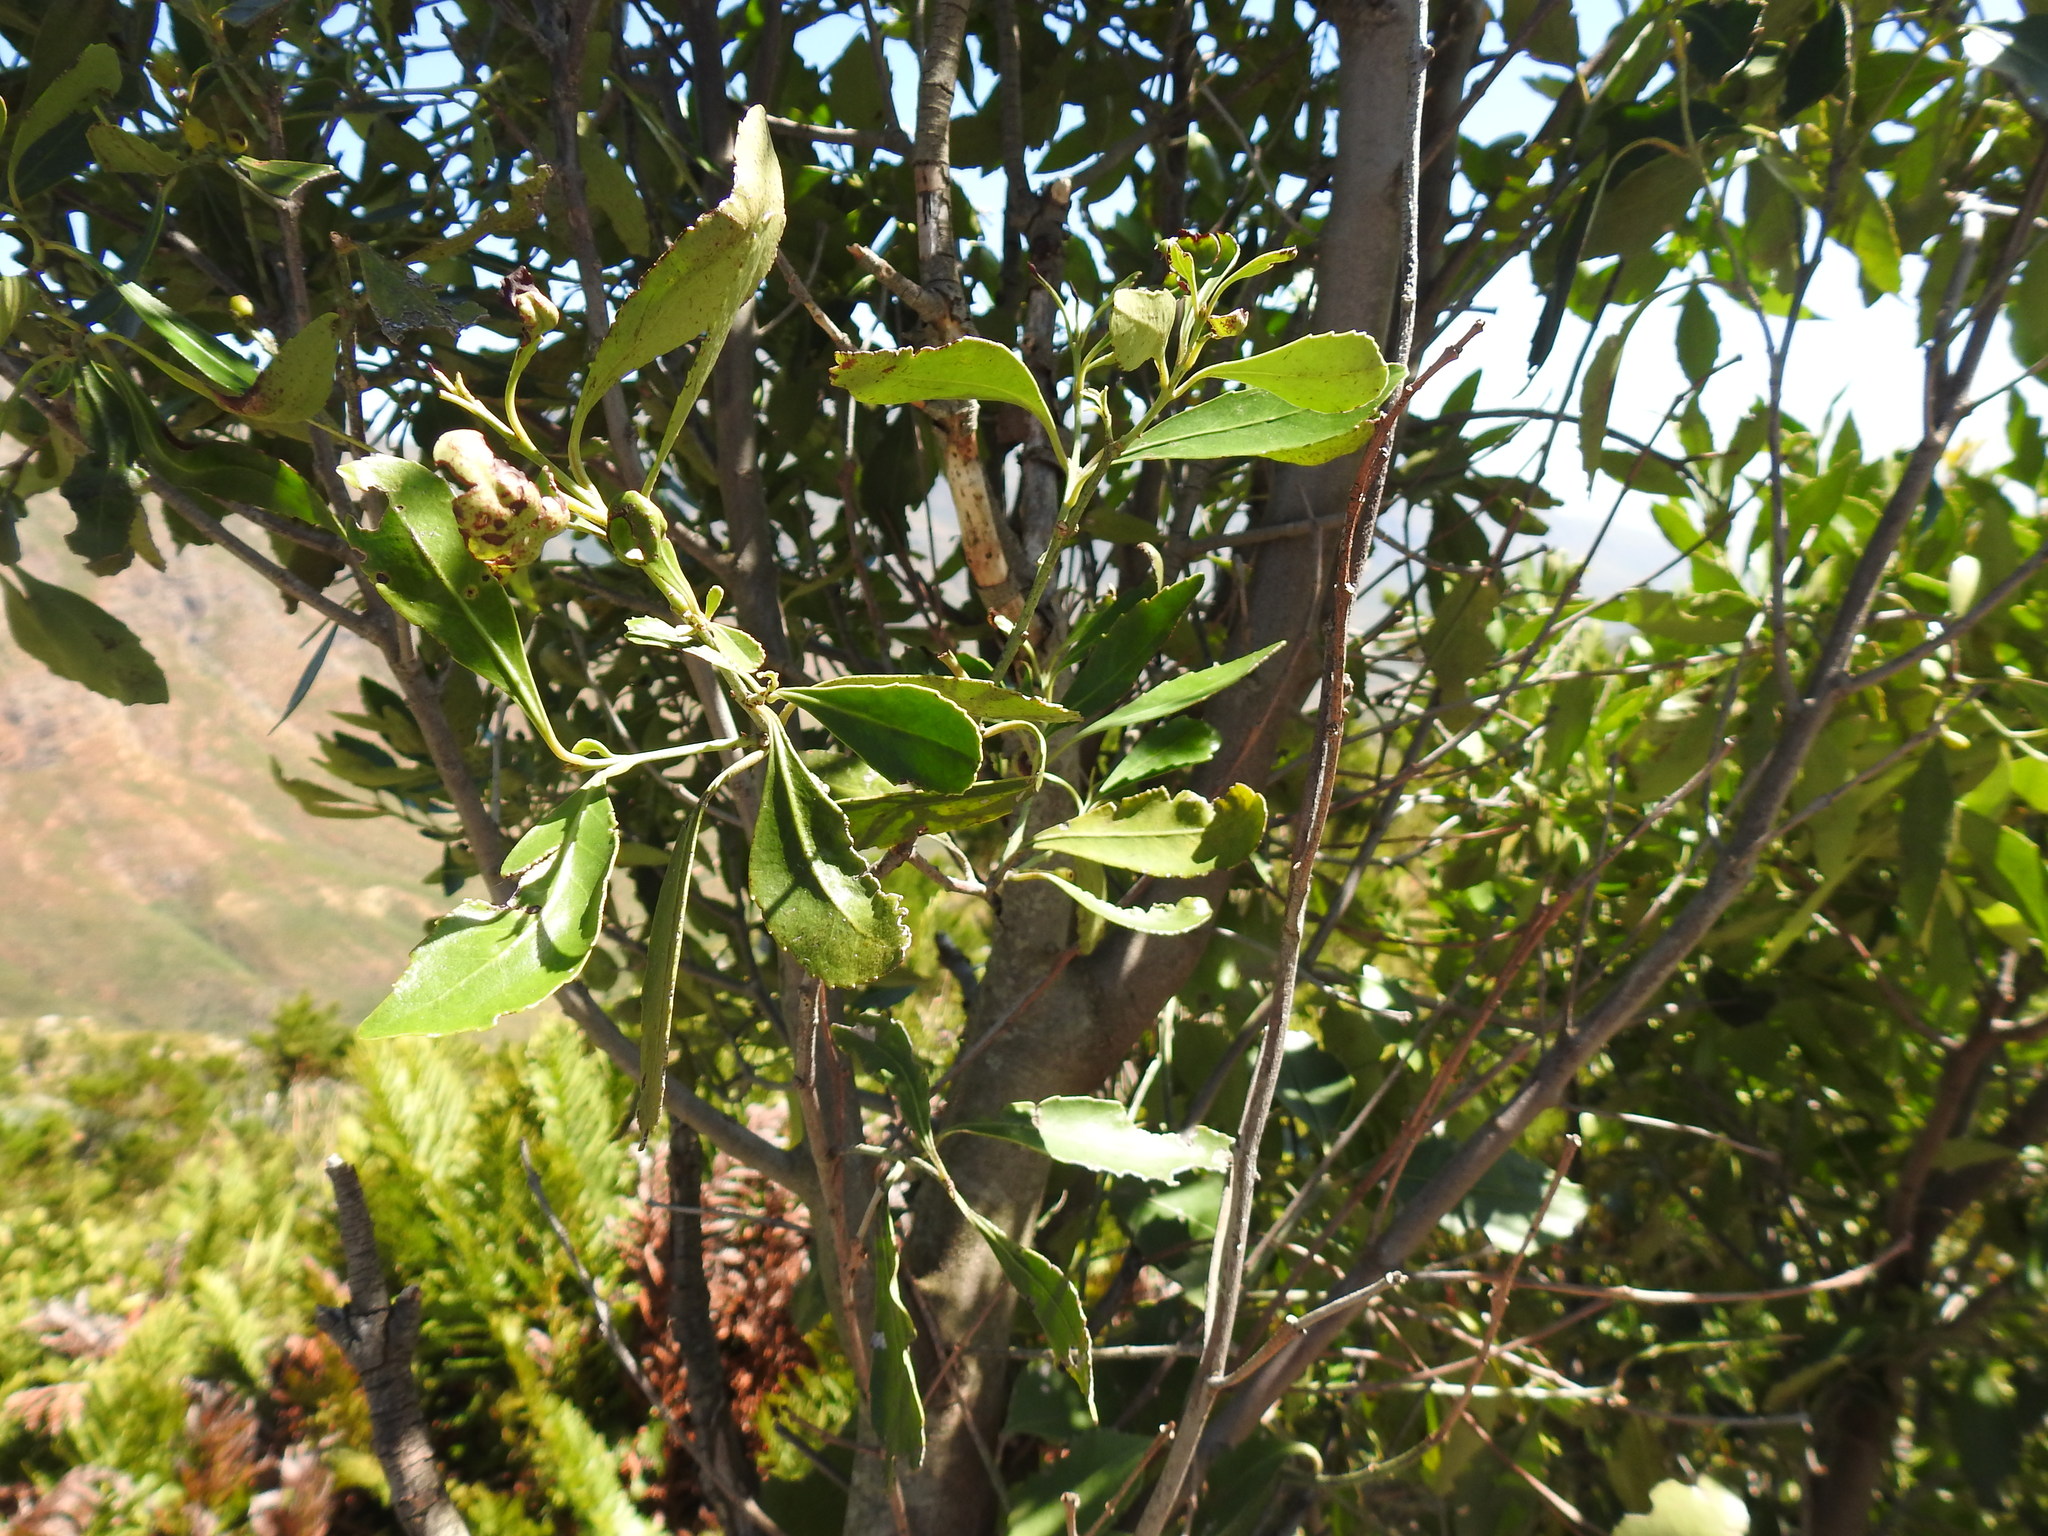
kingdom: Plantae
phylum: Tracheophyta
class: Magnoliopsida
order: Celastrales
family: Celastraceae
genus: Elaeodendron
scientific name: Elaeodendron schinoides
